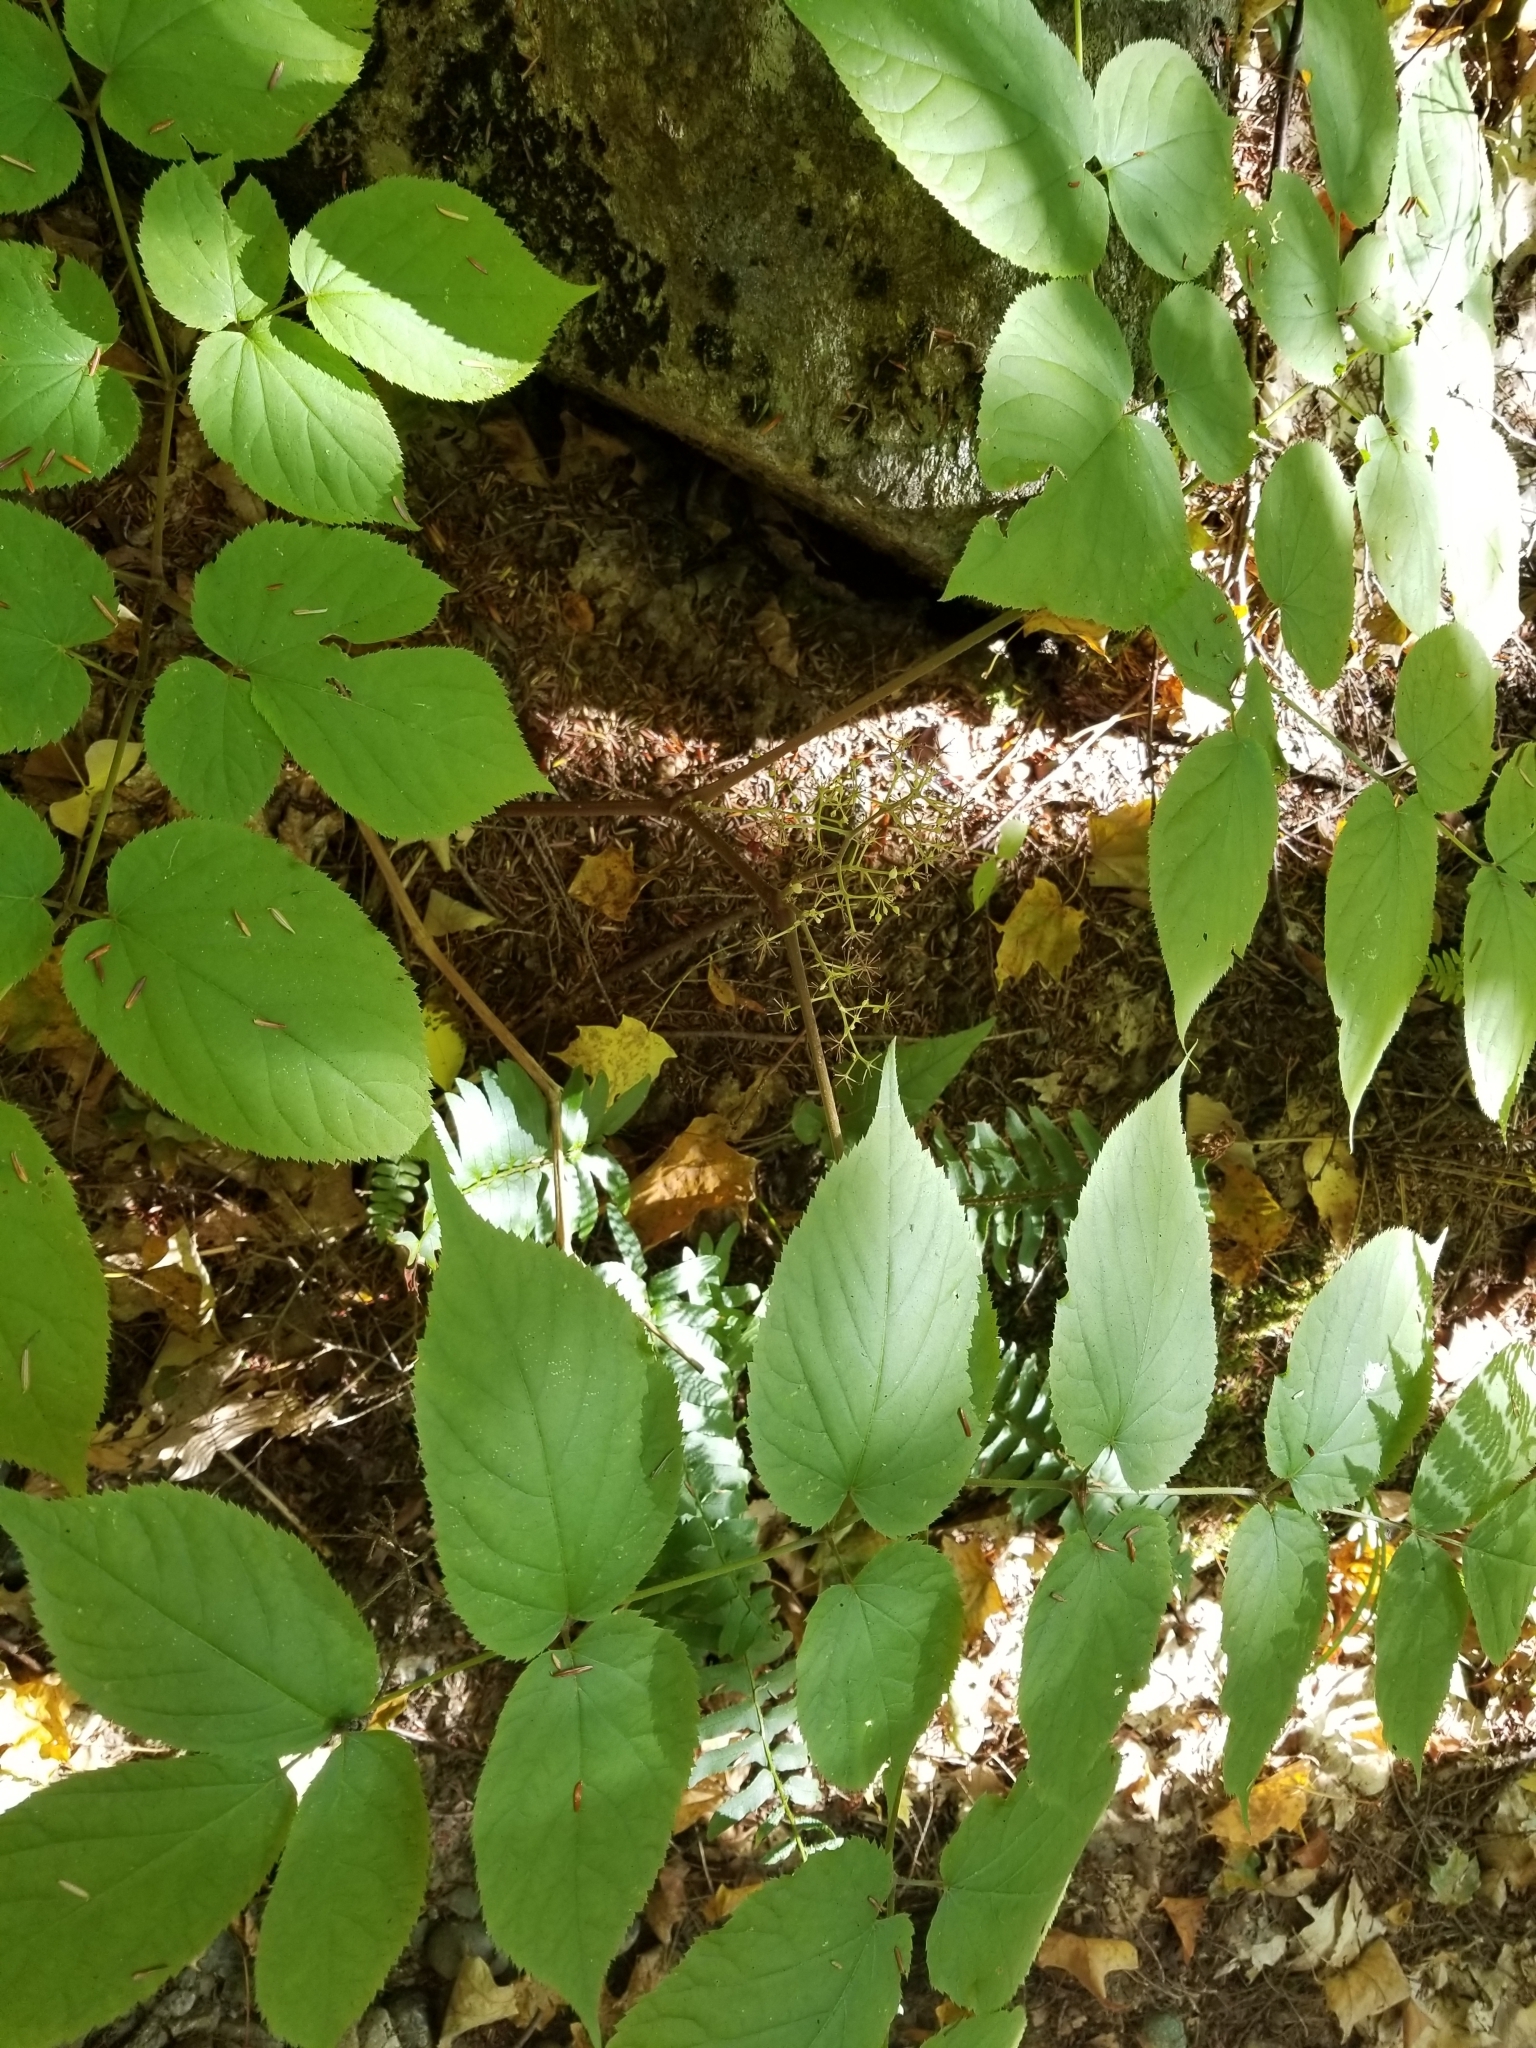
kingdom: Plantae
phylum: Tracheophyta
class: Magnoliopsida
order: Apiales
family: Araliaceae
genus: Aralia
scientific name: Aralia racemosa
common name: American-spikenard
